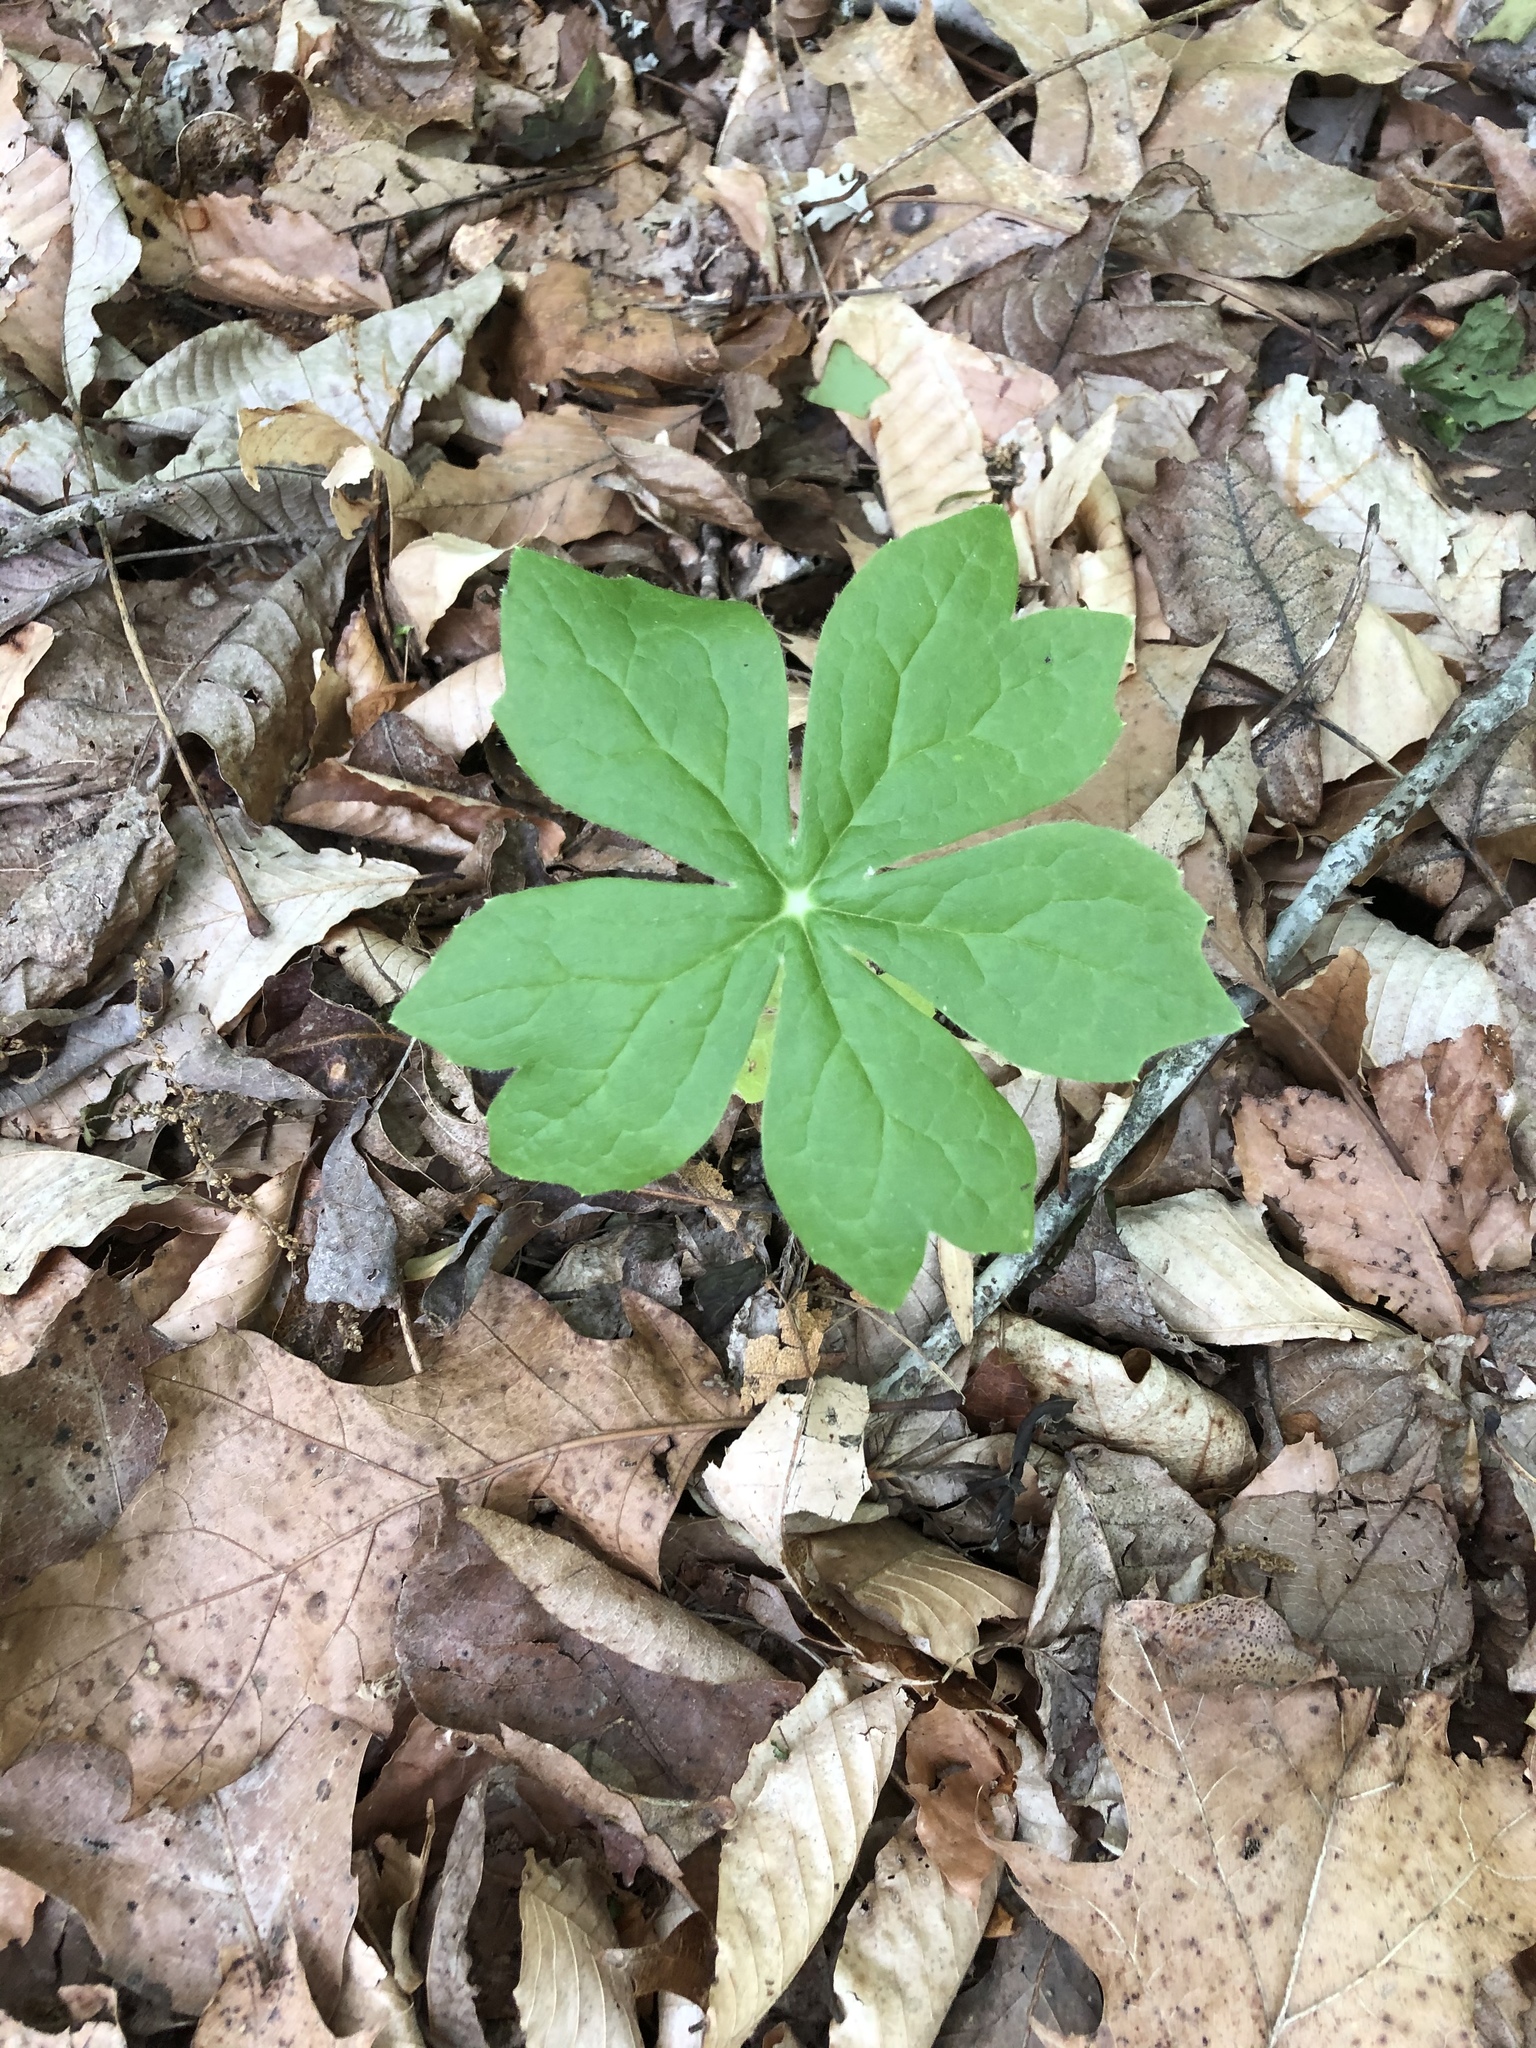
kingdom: Plantae
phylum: Tracheophyta
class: Magnoliopsida
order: Ranunculales
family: Berberidaceae
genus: Podophyllum
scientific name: Podophyllum peltatum
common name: Wild mandrake
